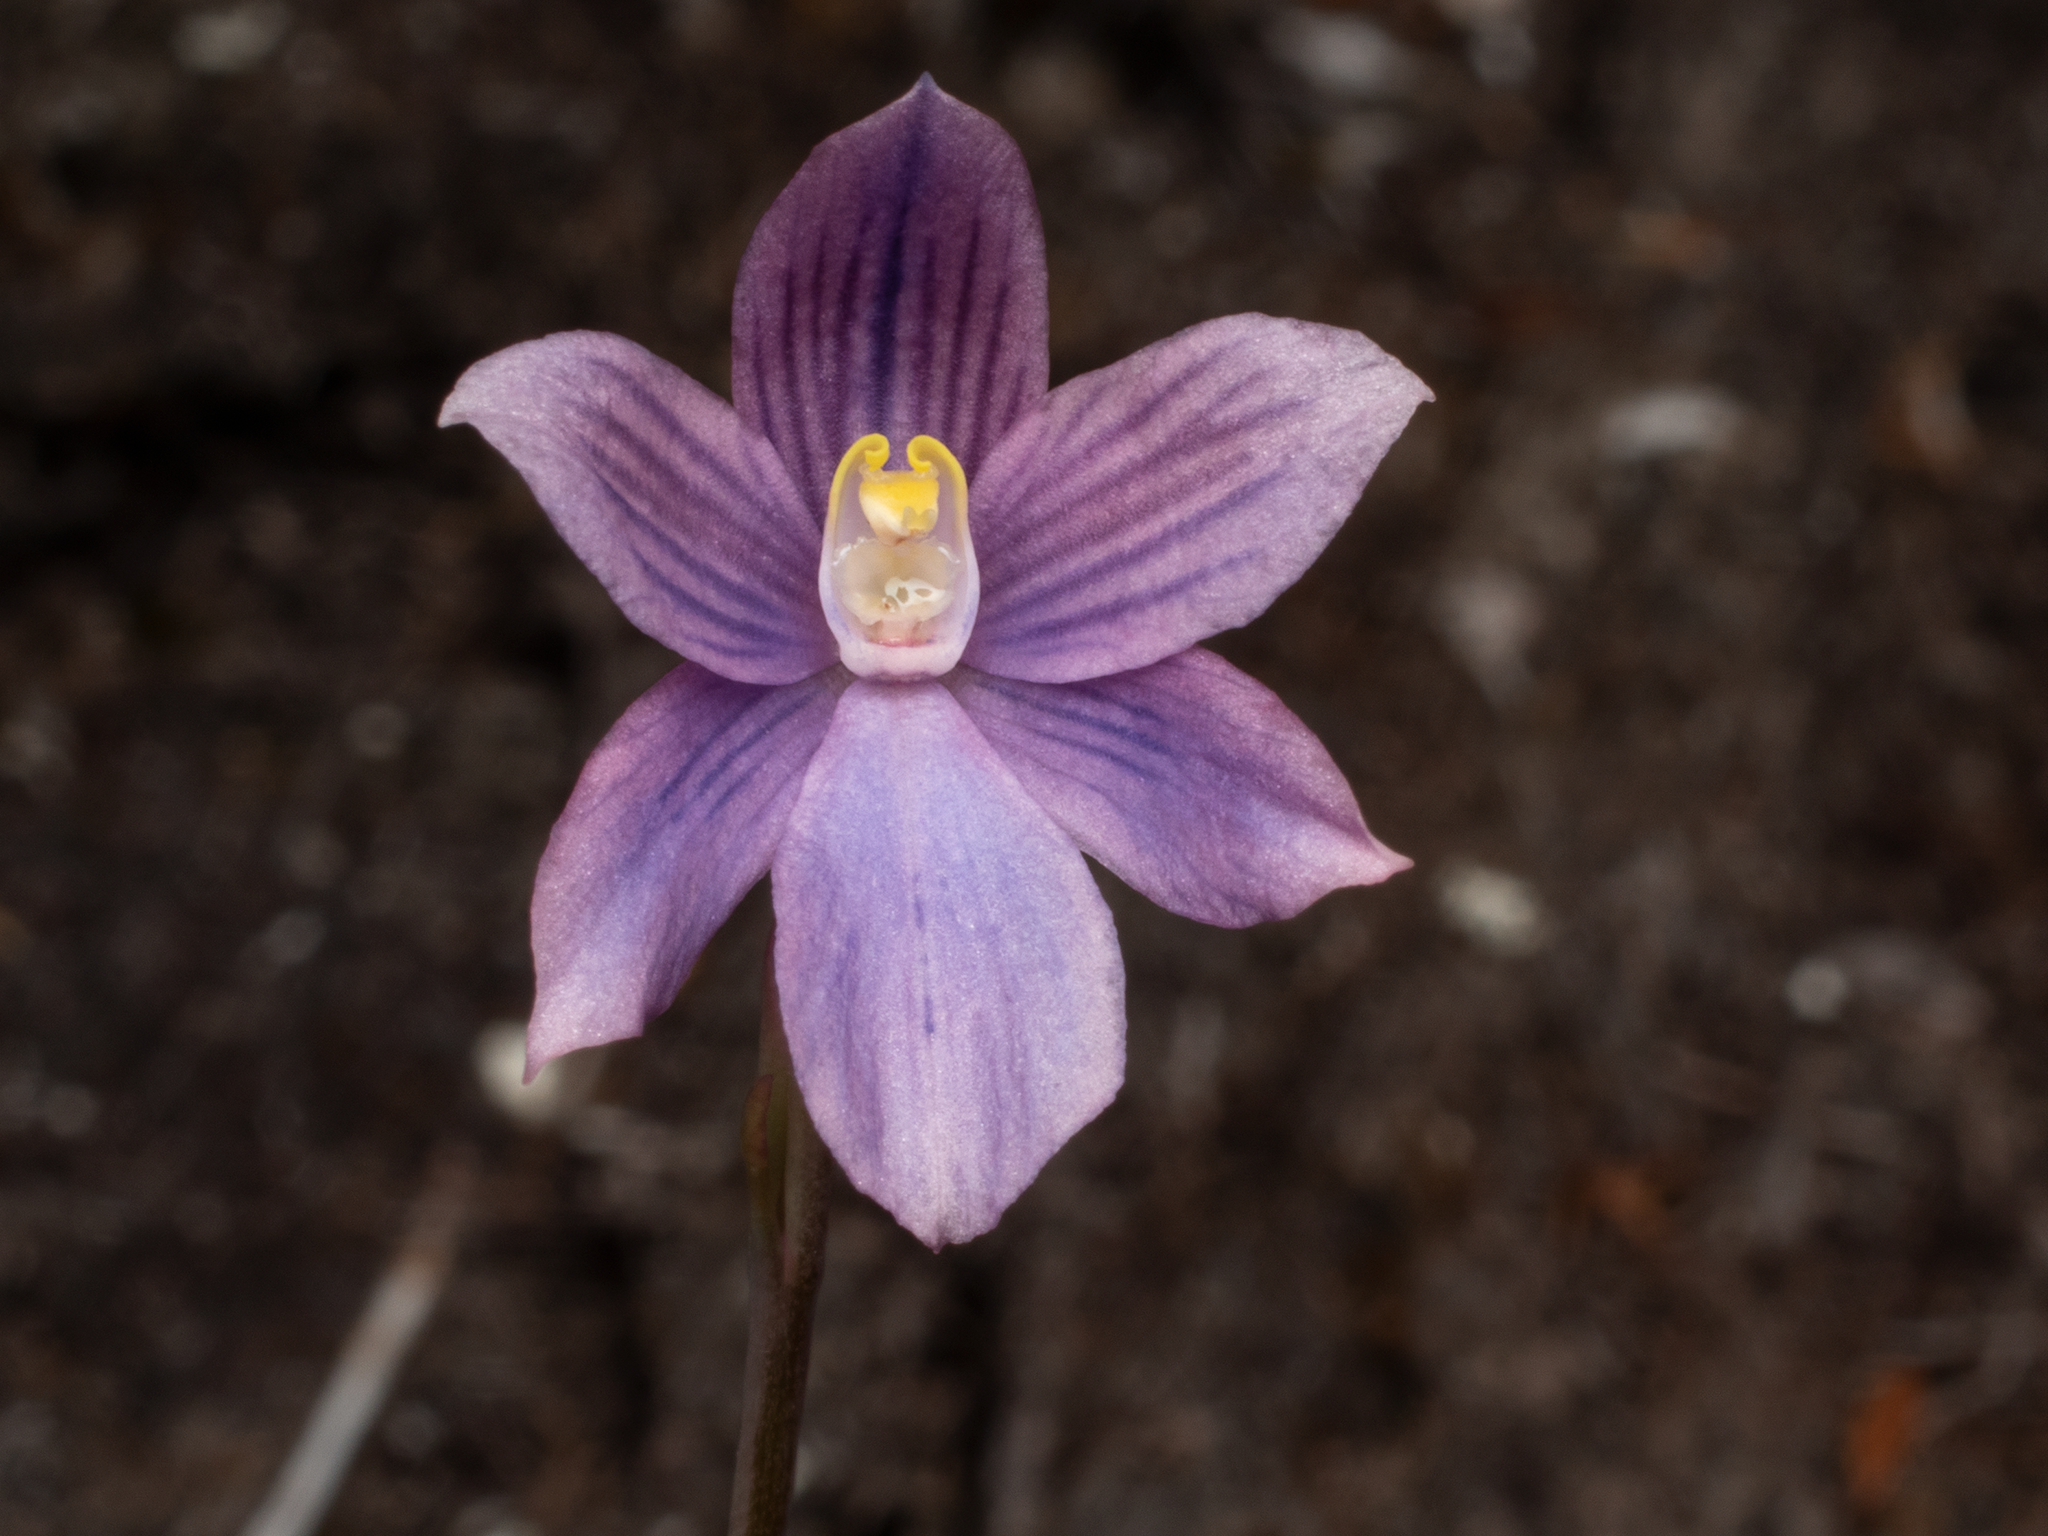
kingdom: Plantae
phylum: Tracheophyta
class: Liliopsida
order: Asparagales
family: Orchidaceae
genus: Thelymitra
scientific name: Thelymitra cyanea
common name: Blue sun-orchid
